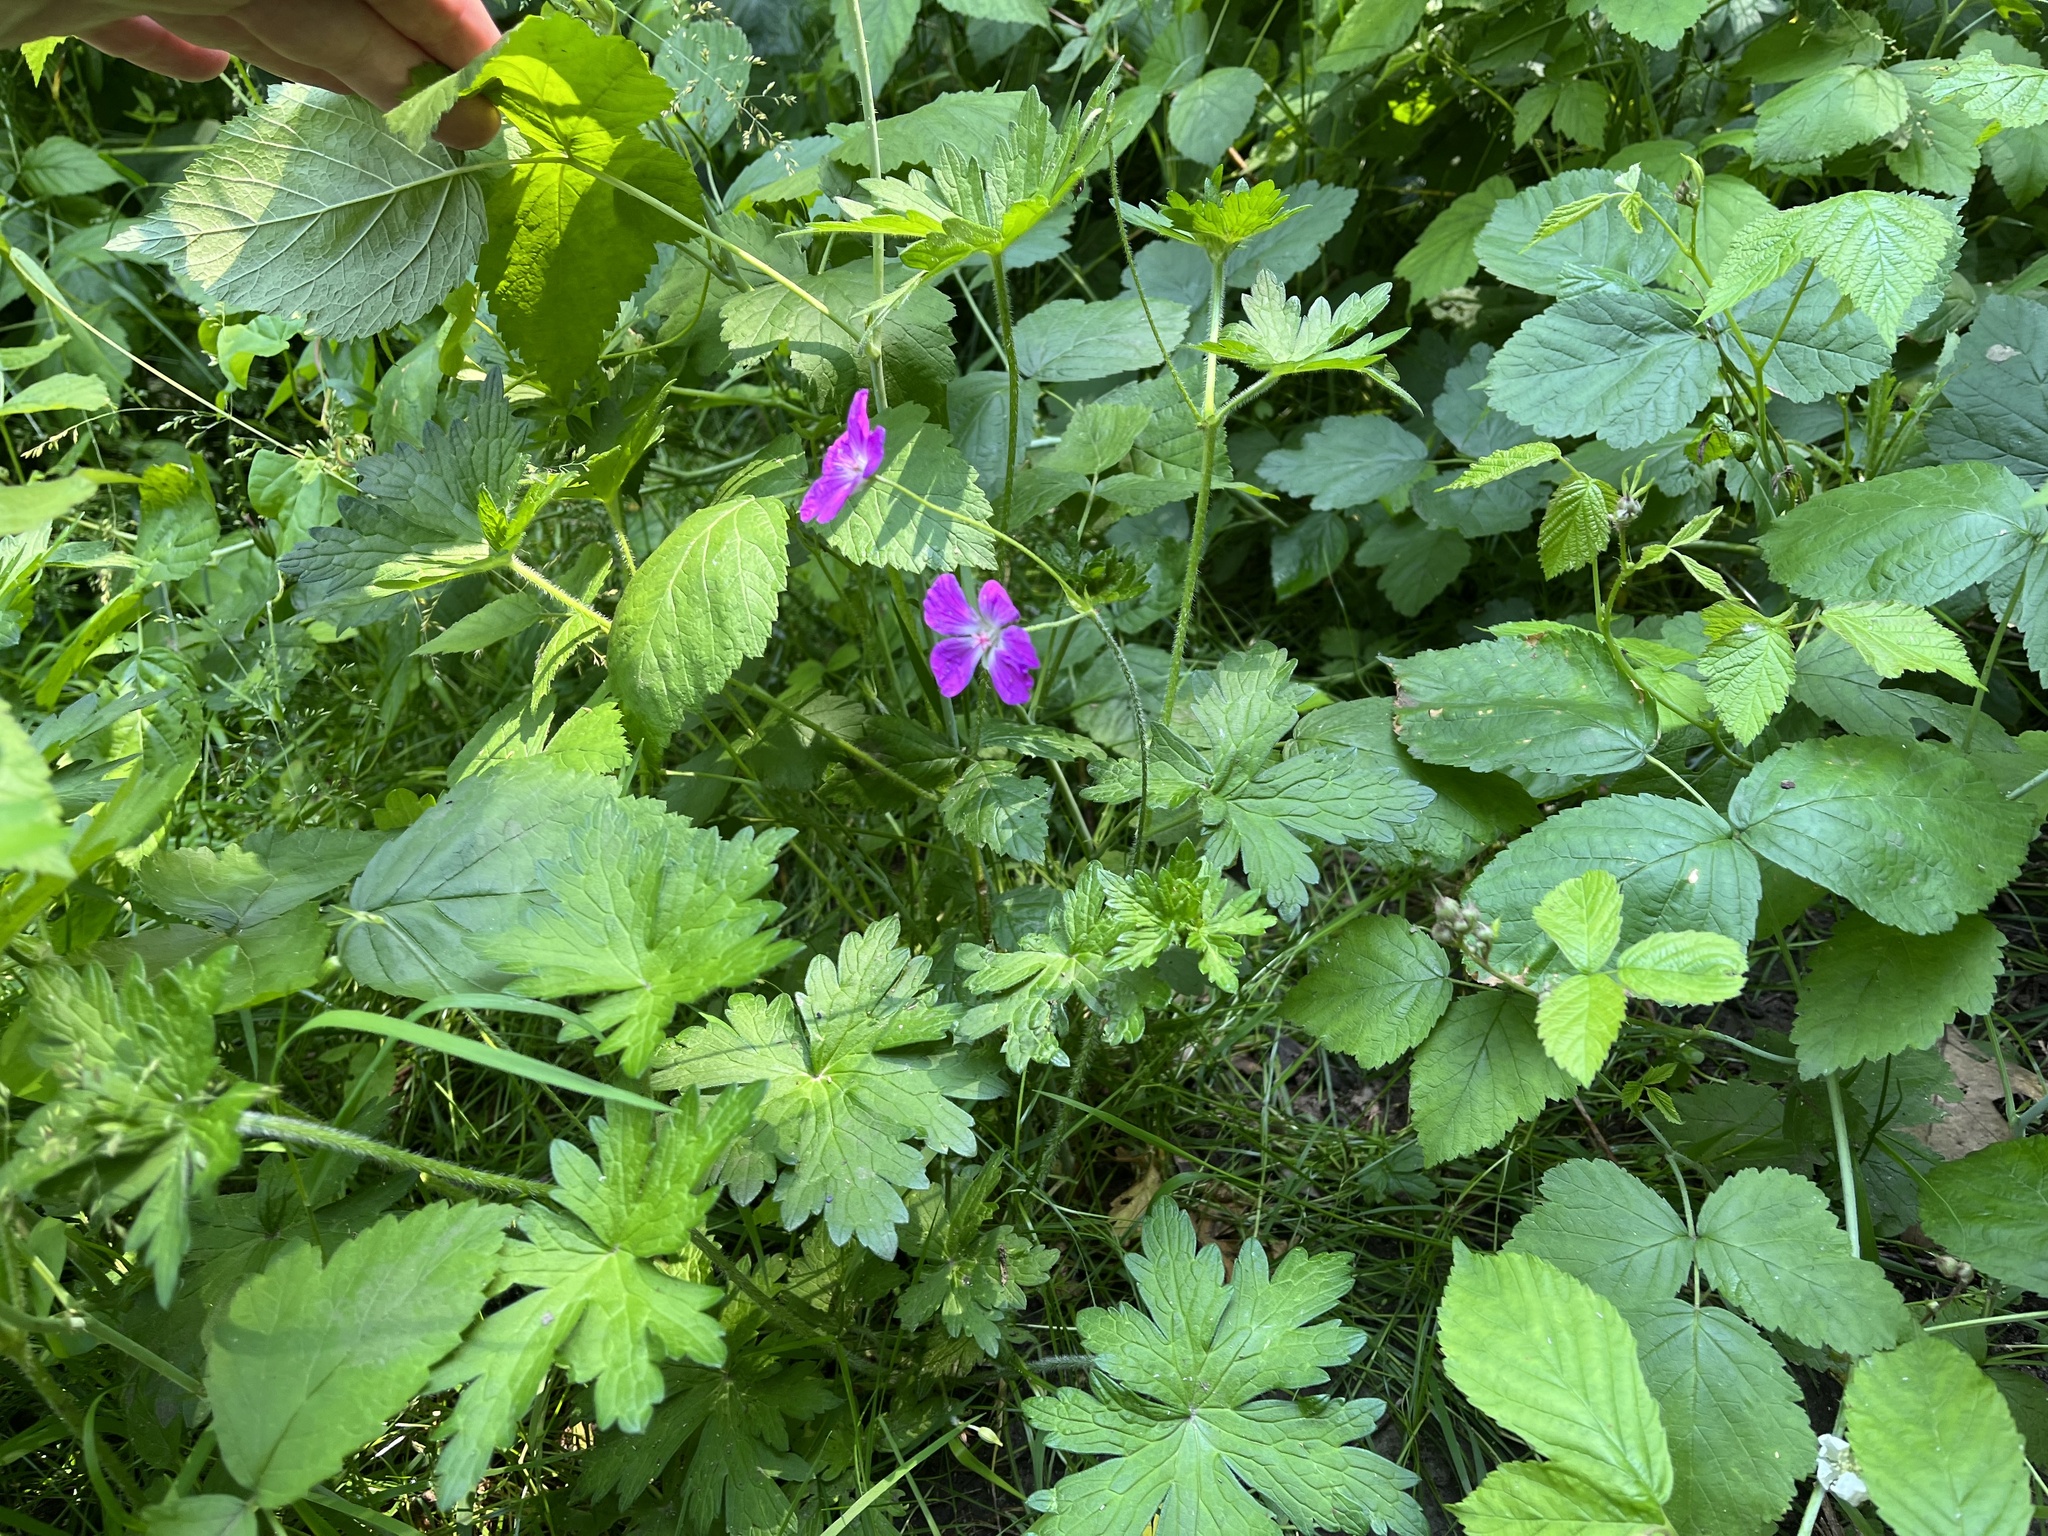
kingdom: Plantae
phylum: Tracheophyta
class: Magnoliopsida
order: Geraniales
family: Geraniaceae
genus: Geranium
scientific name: Geranium palustre
